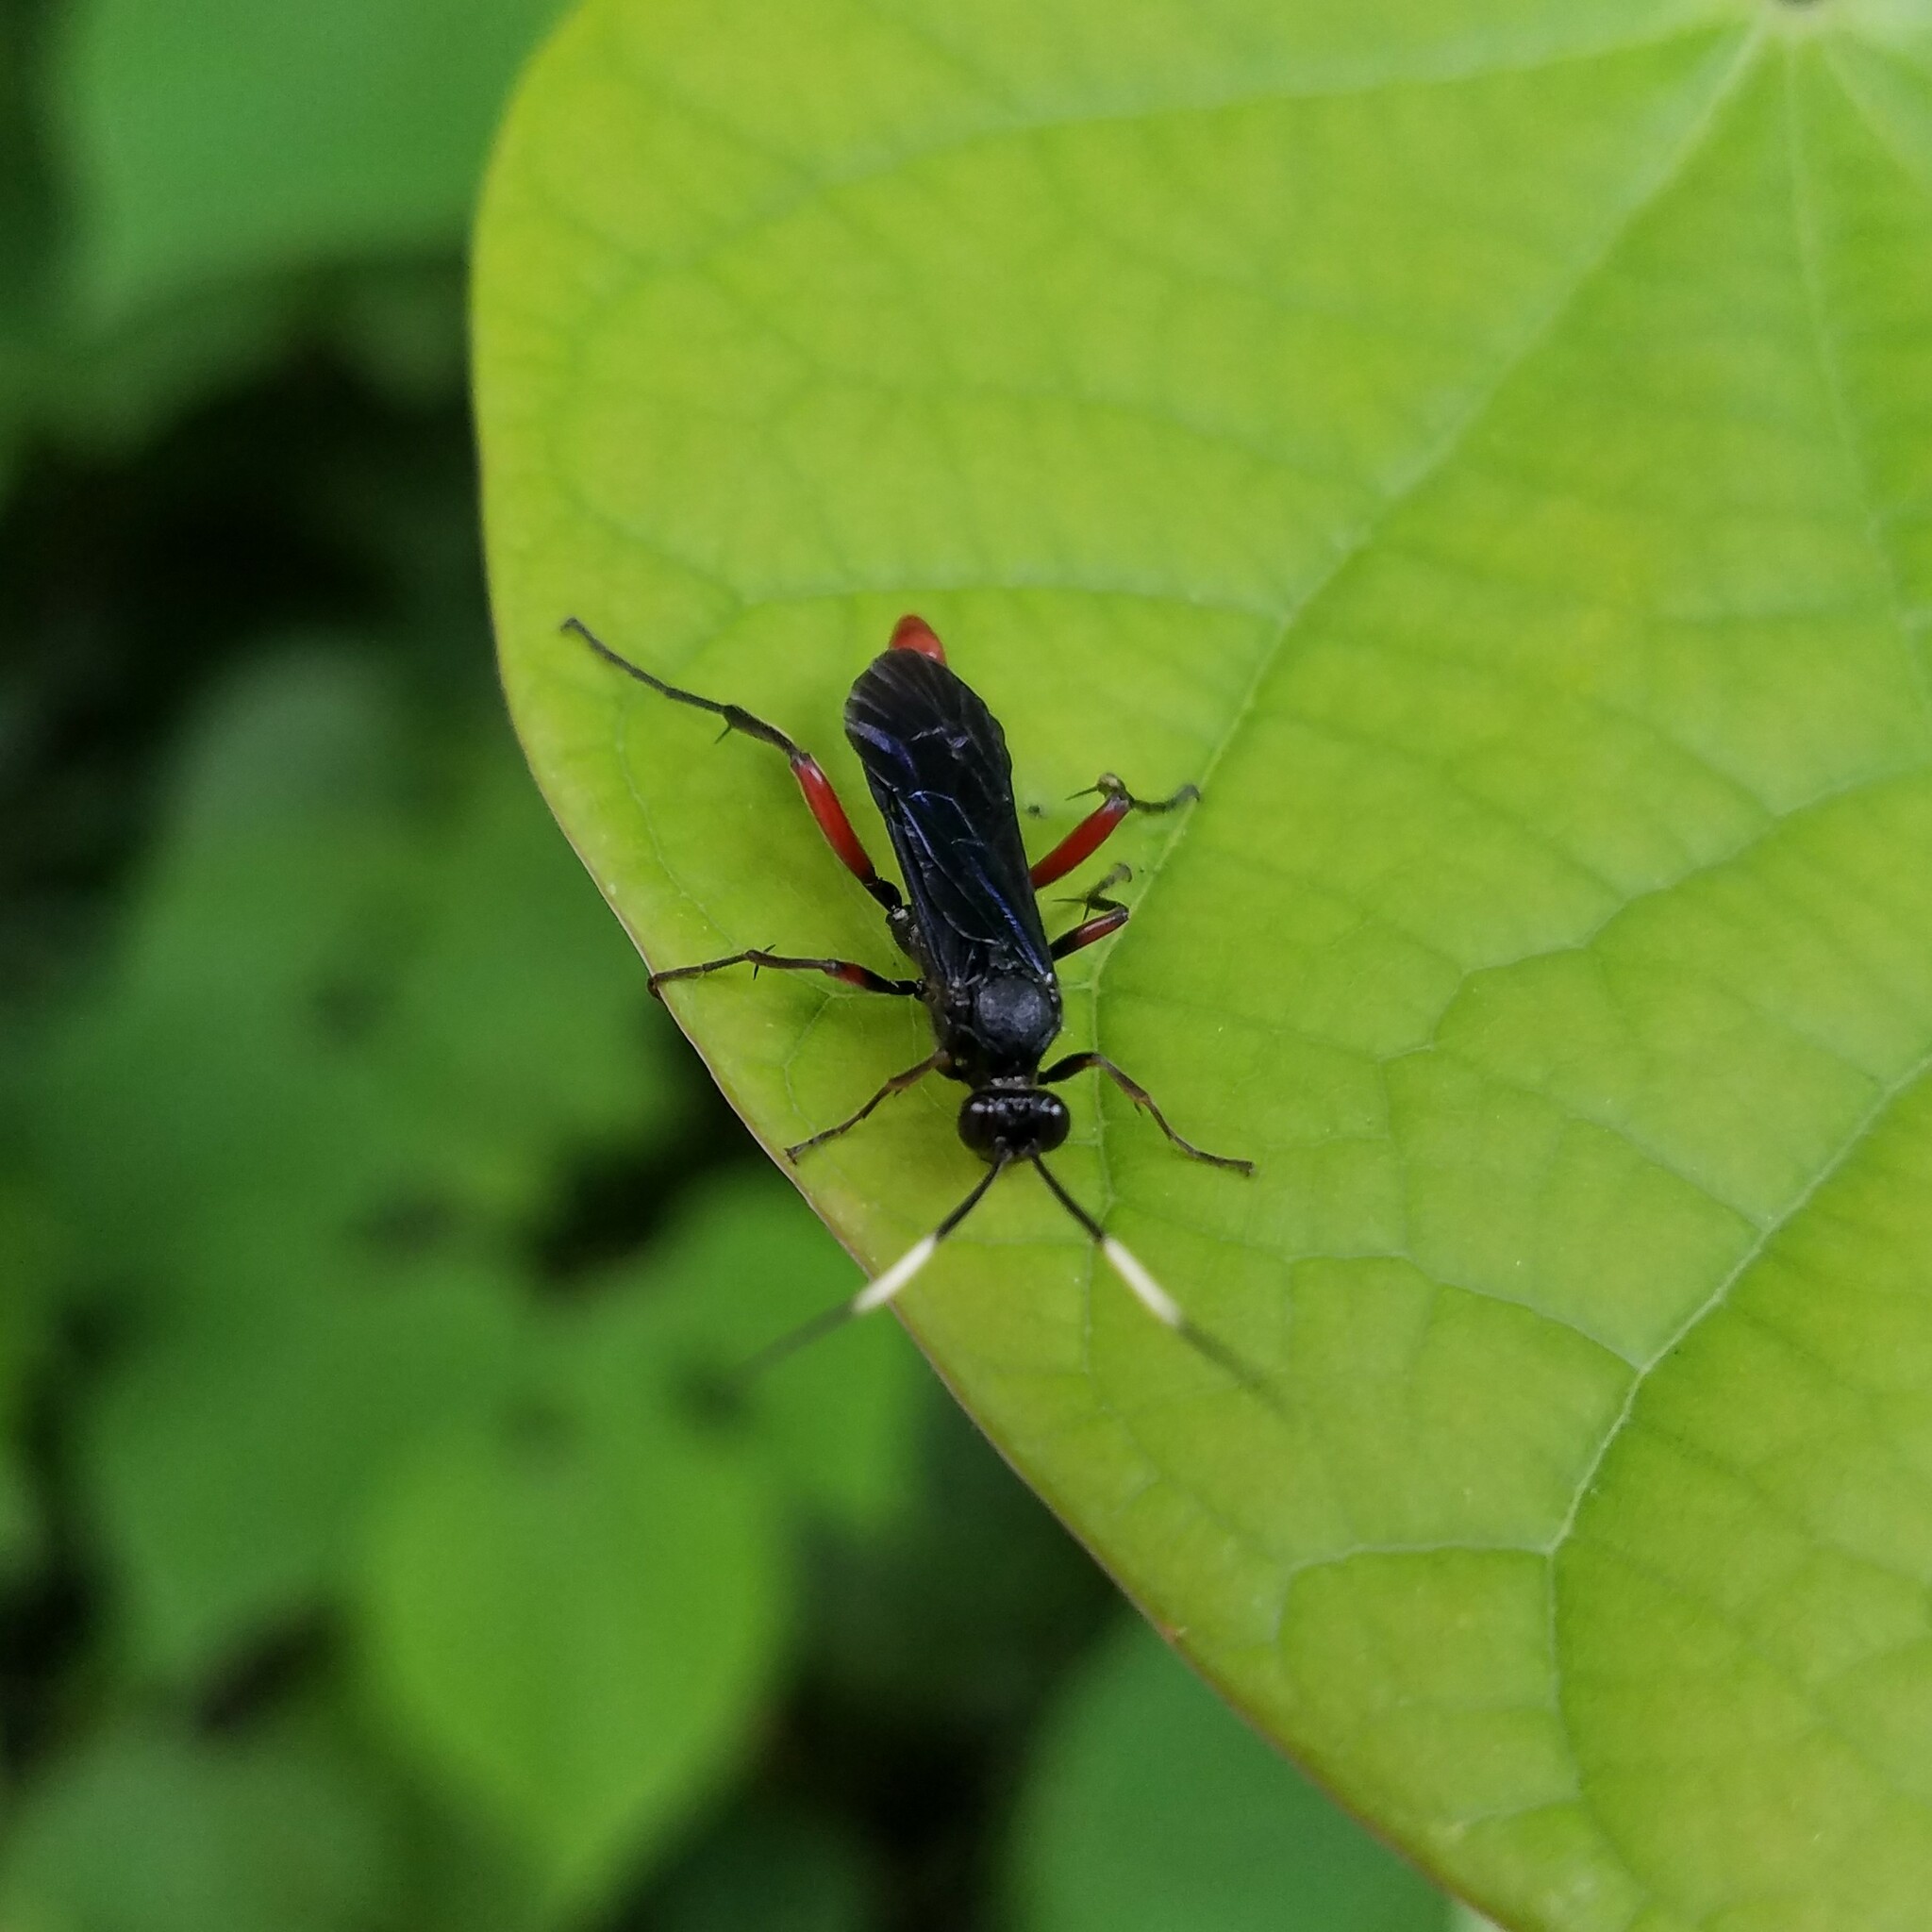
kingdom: Animalia
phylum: Arthropoda
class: Insecta
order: Hymenoptera
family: Ichneumonidae
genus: Limonethe
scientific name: Limonethe maurator
